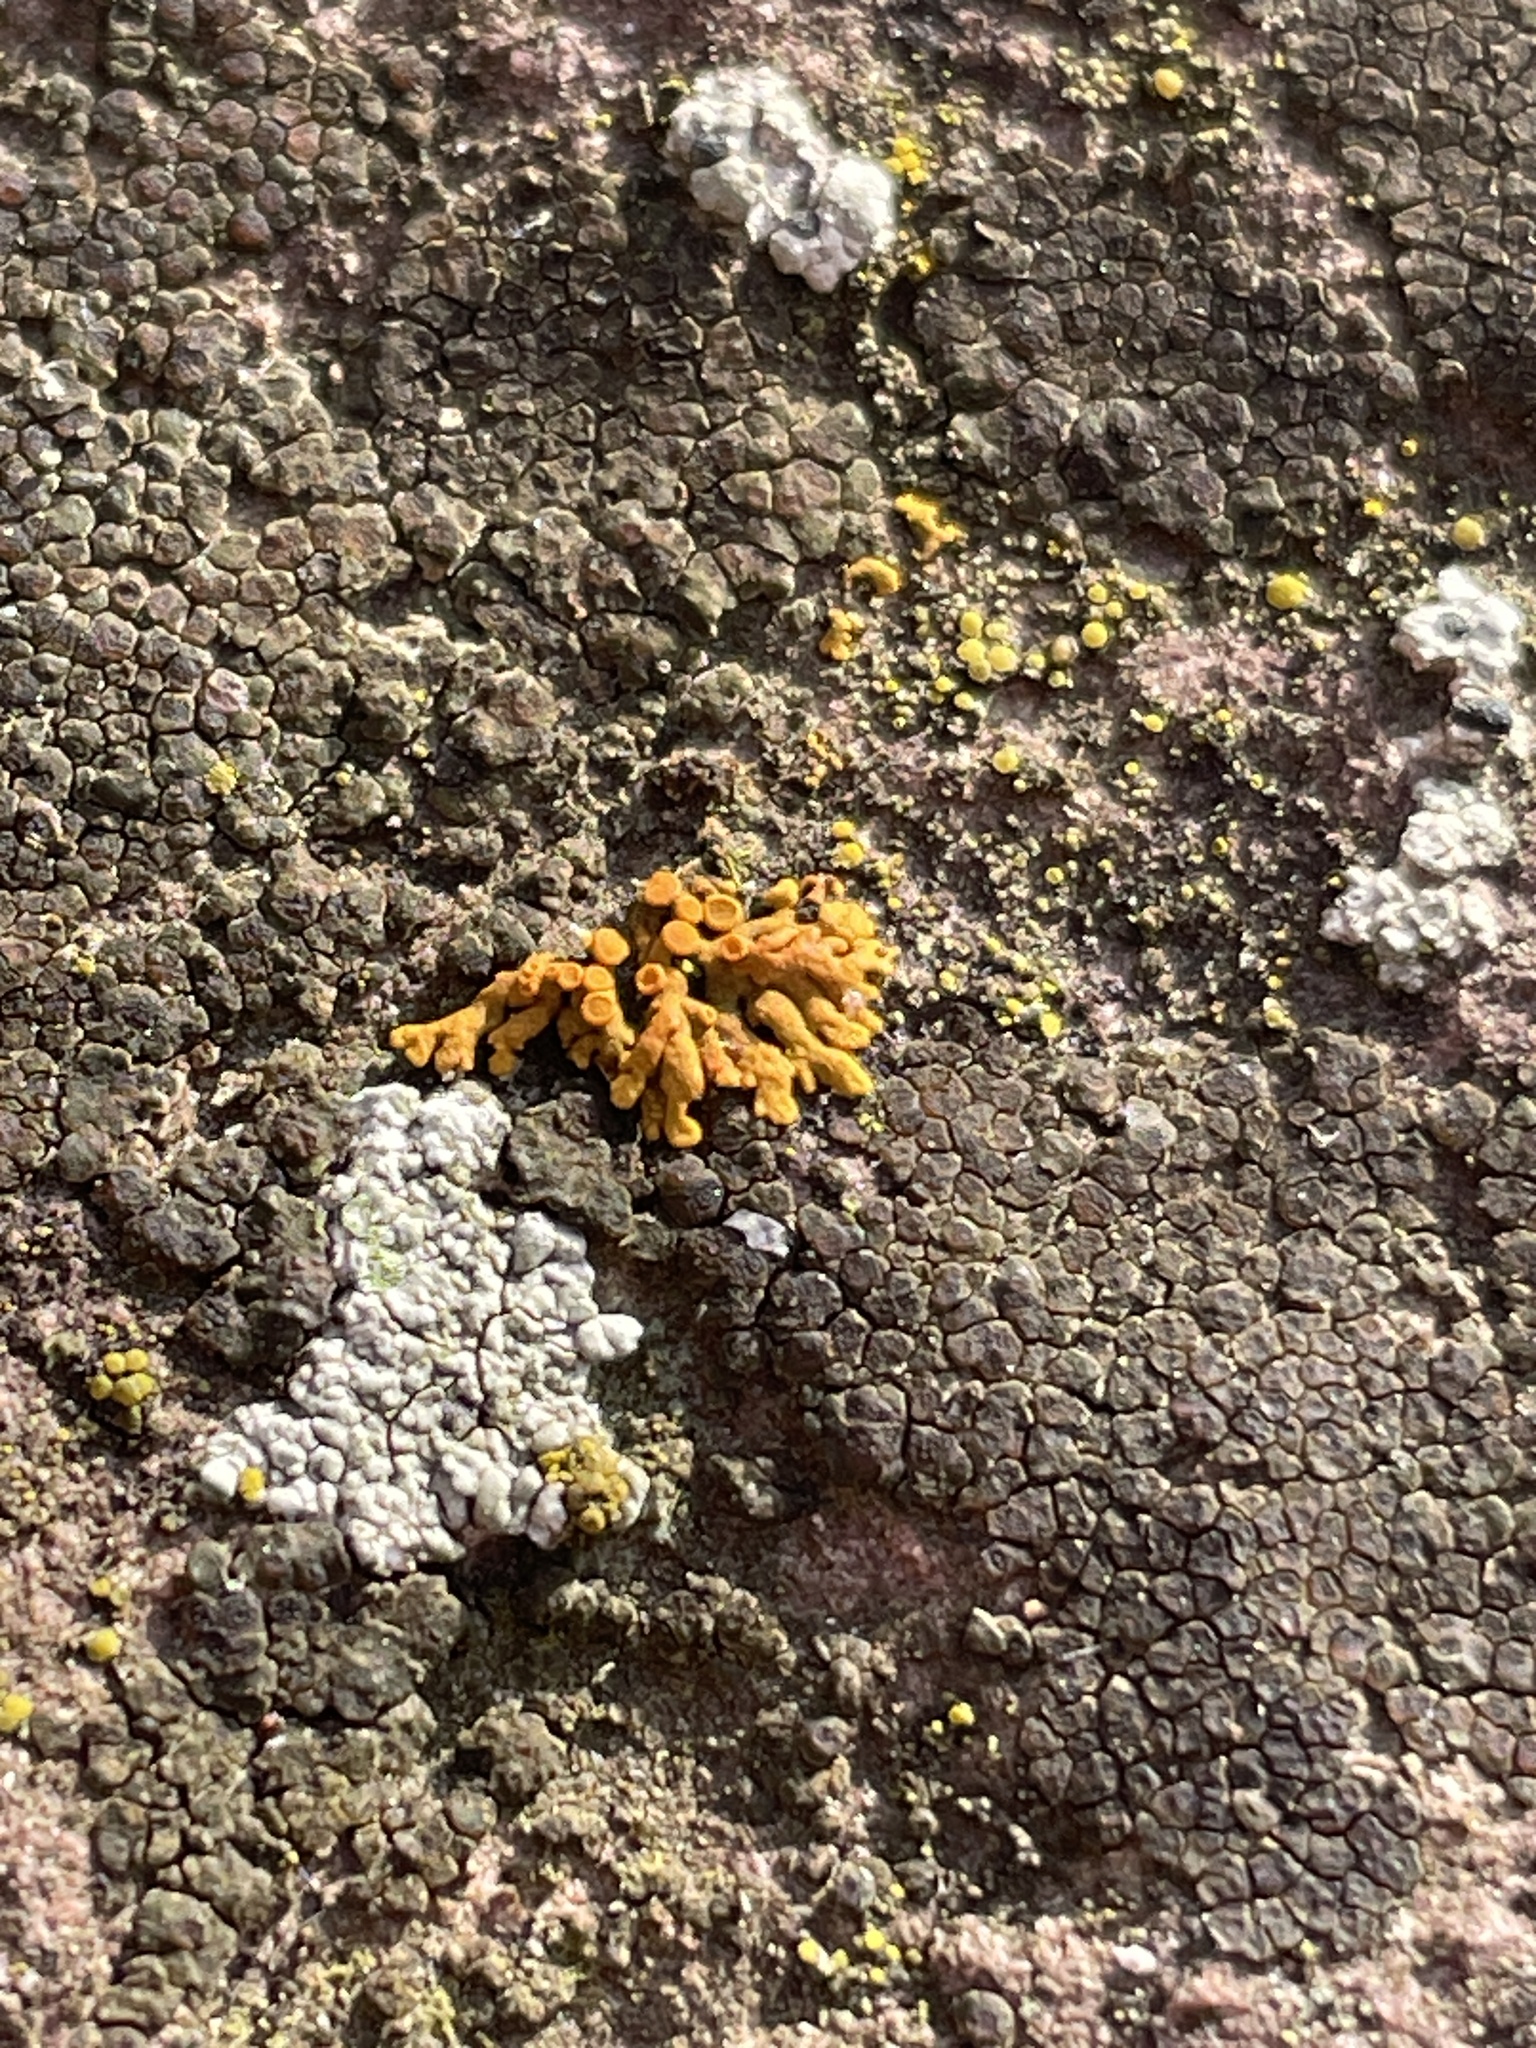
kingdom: Fungi
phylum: Ascomycota
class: Lecanoromycetes
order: Teloschistales
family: Teloschistaceae
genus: Xanthoria
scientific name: Xanthoria elegans
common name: Elegant sunburst lichen
